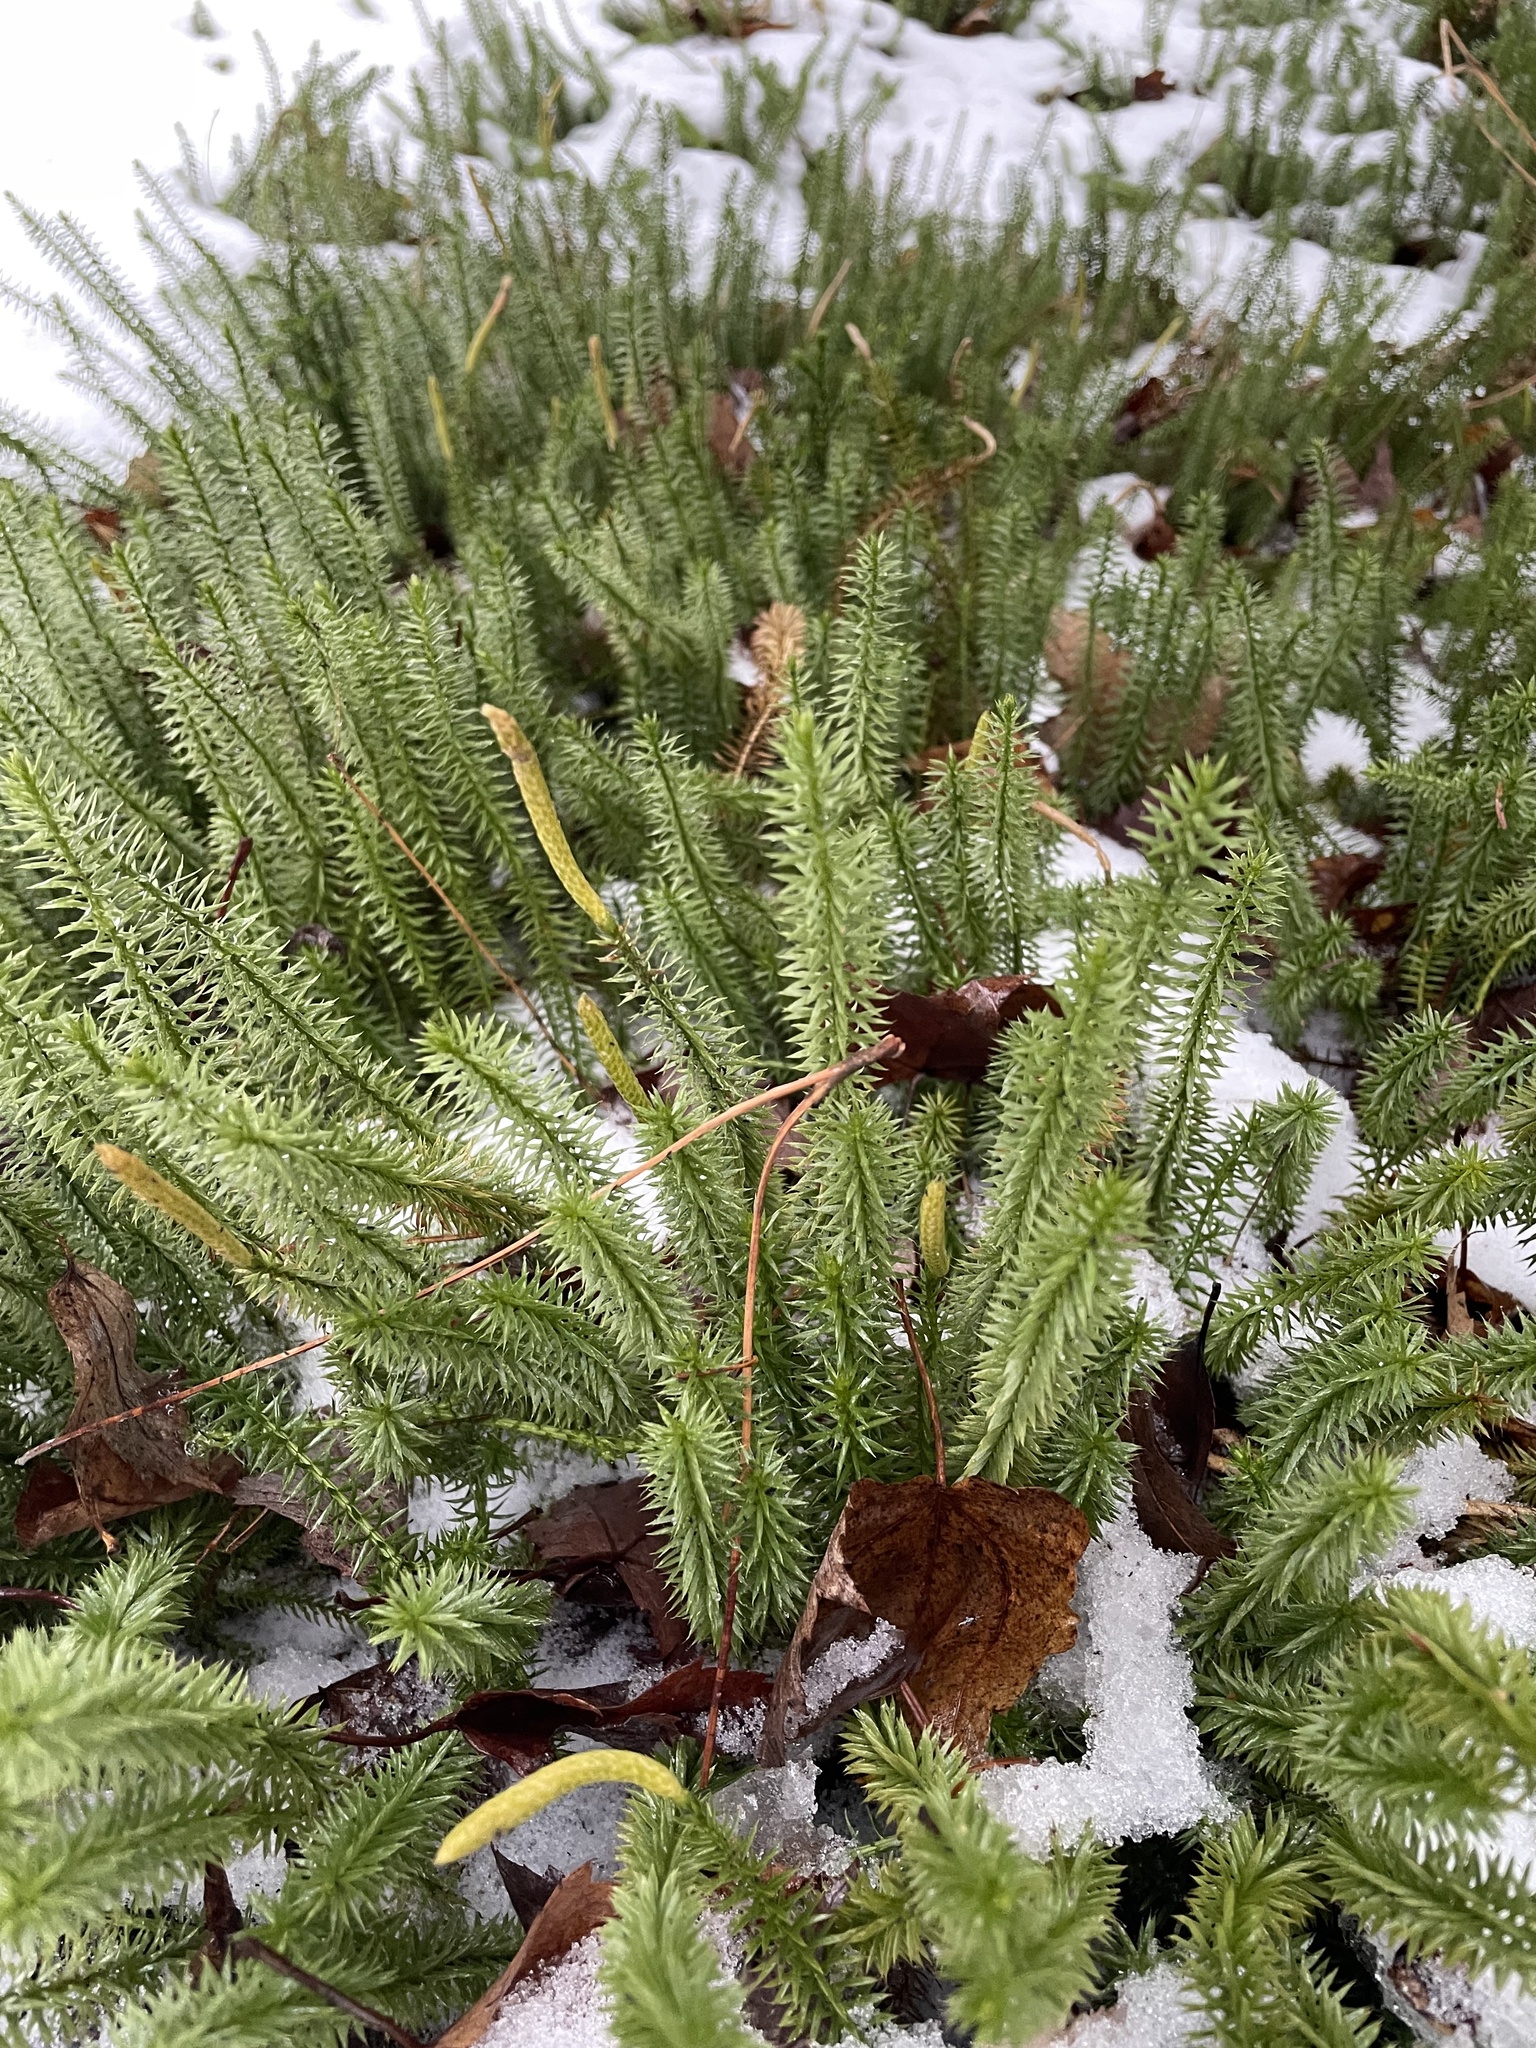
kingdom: Plantae
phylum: Tracheophyta
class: Lycopodiopsida
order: Lycopodiales
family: Lycopodiaceae
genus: Spinulum
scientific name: Spinulum annotinum
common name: Interrupted club-moss
